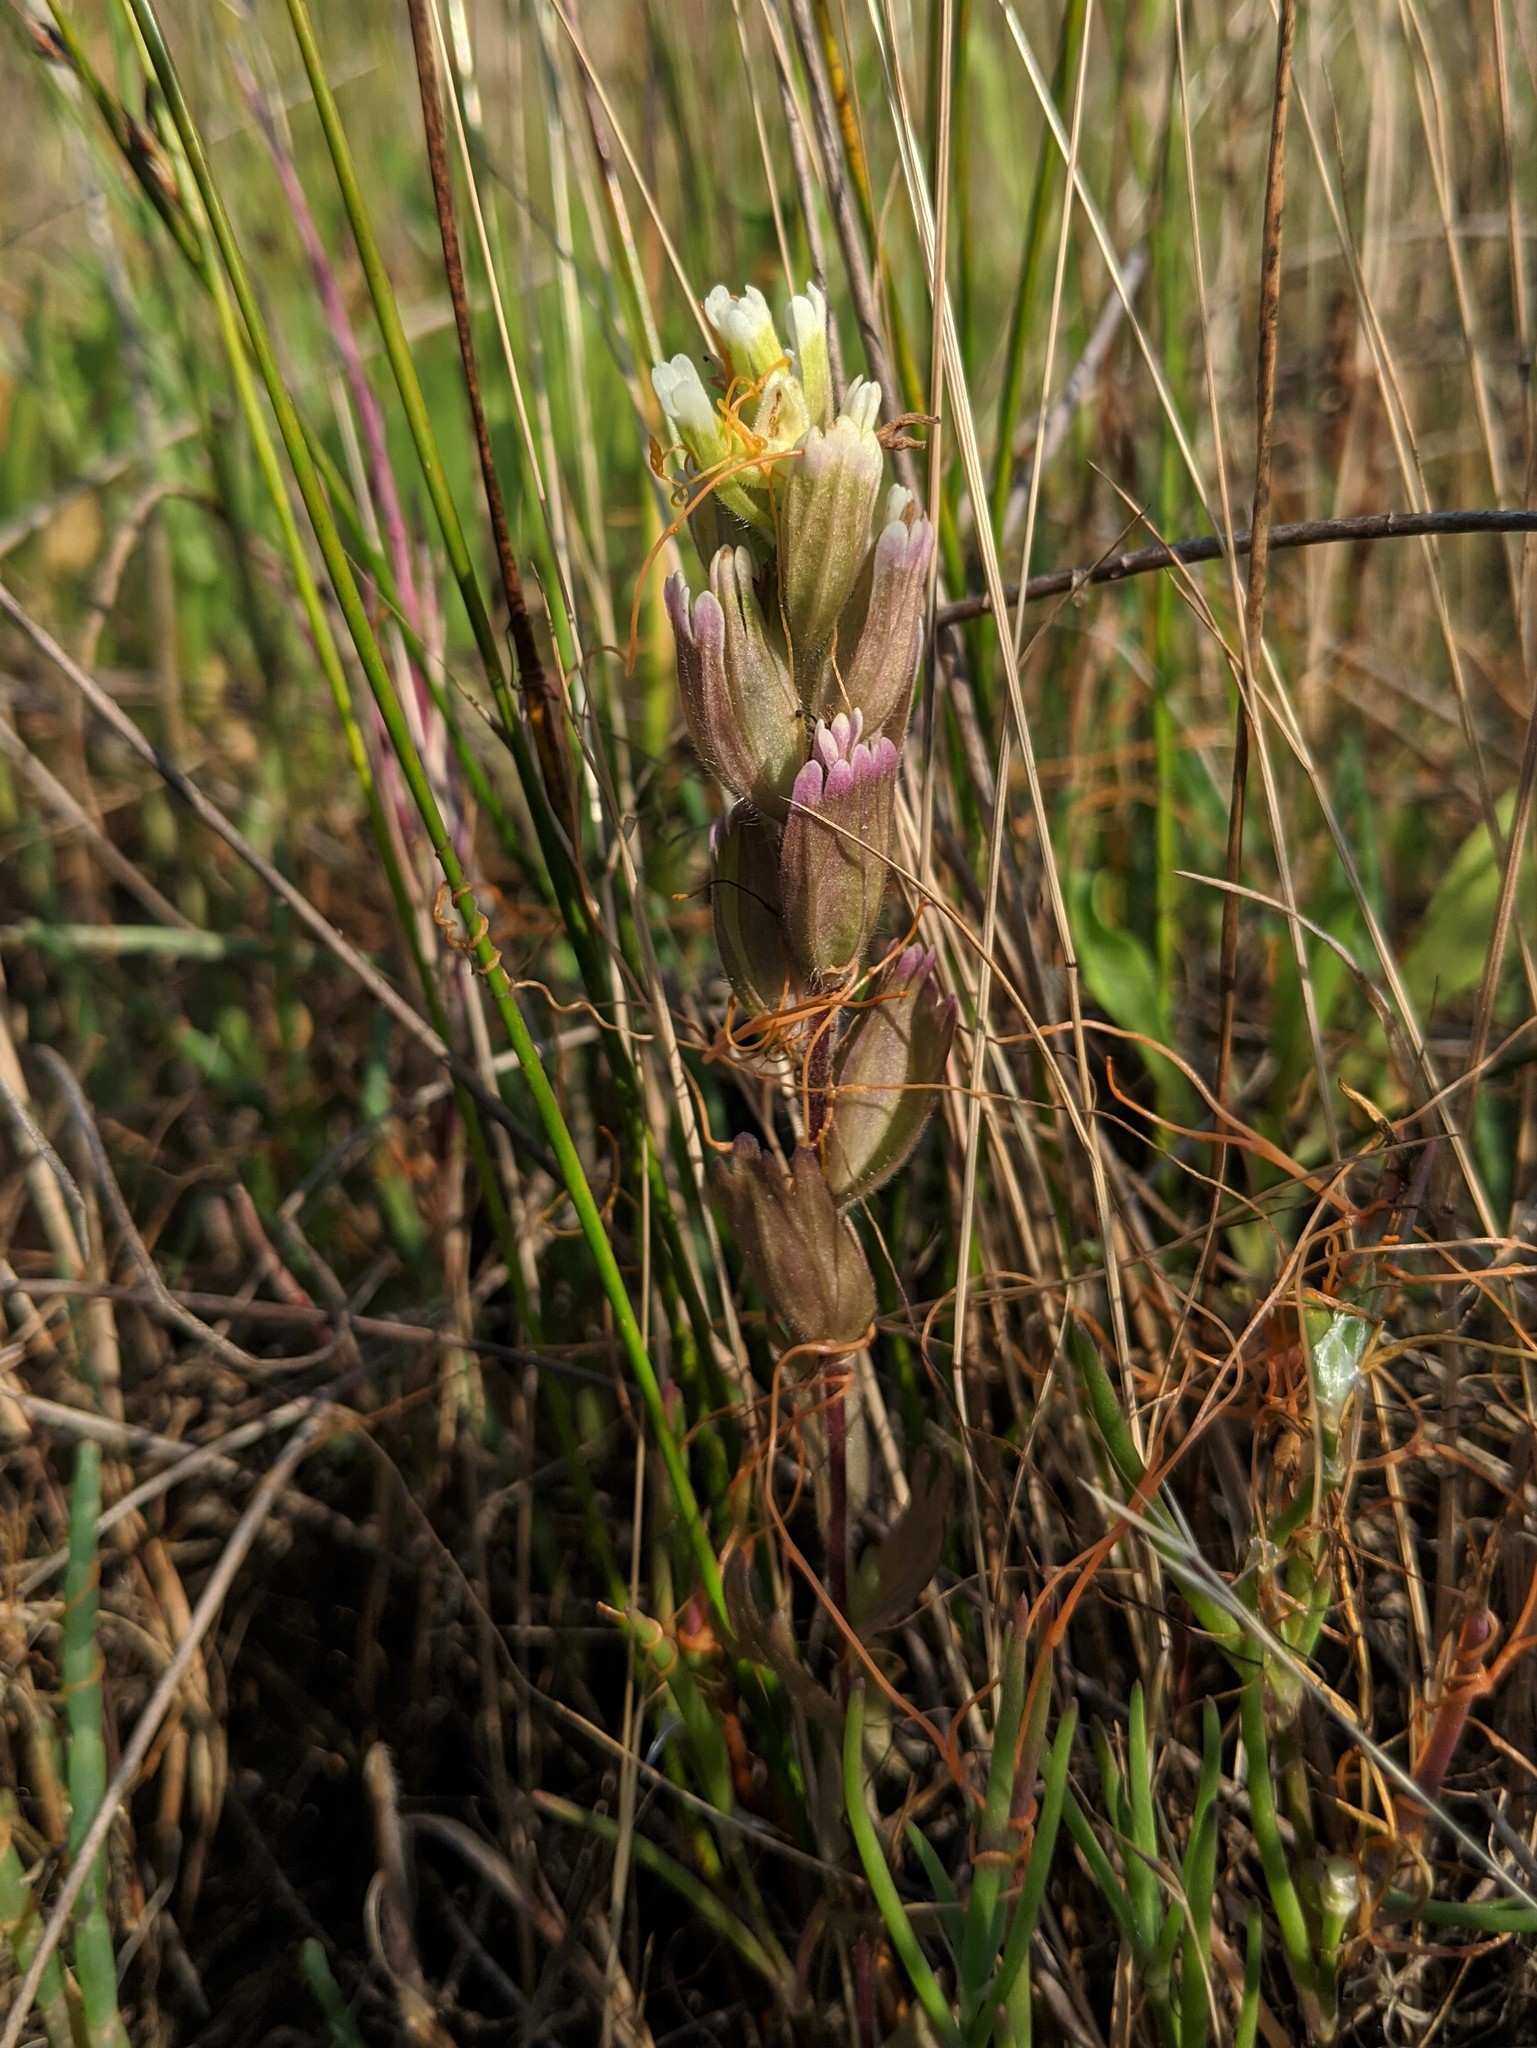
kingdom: Plantae
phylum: Tracheophyta
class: Magnoliopsida
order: Lamiales
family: Orobanchaceae
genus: Castilleja
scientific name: Castilleja ambigua
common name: Johnny-nip
